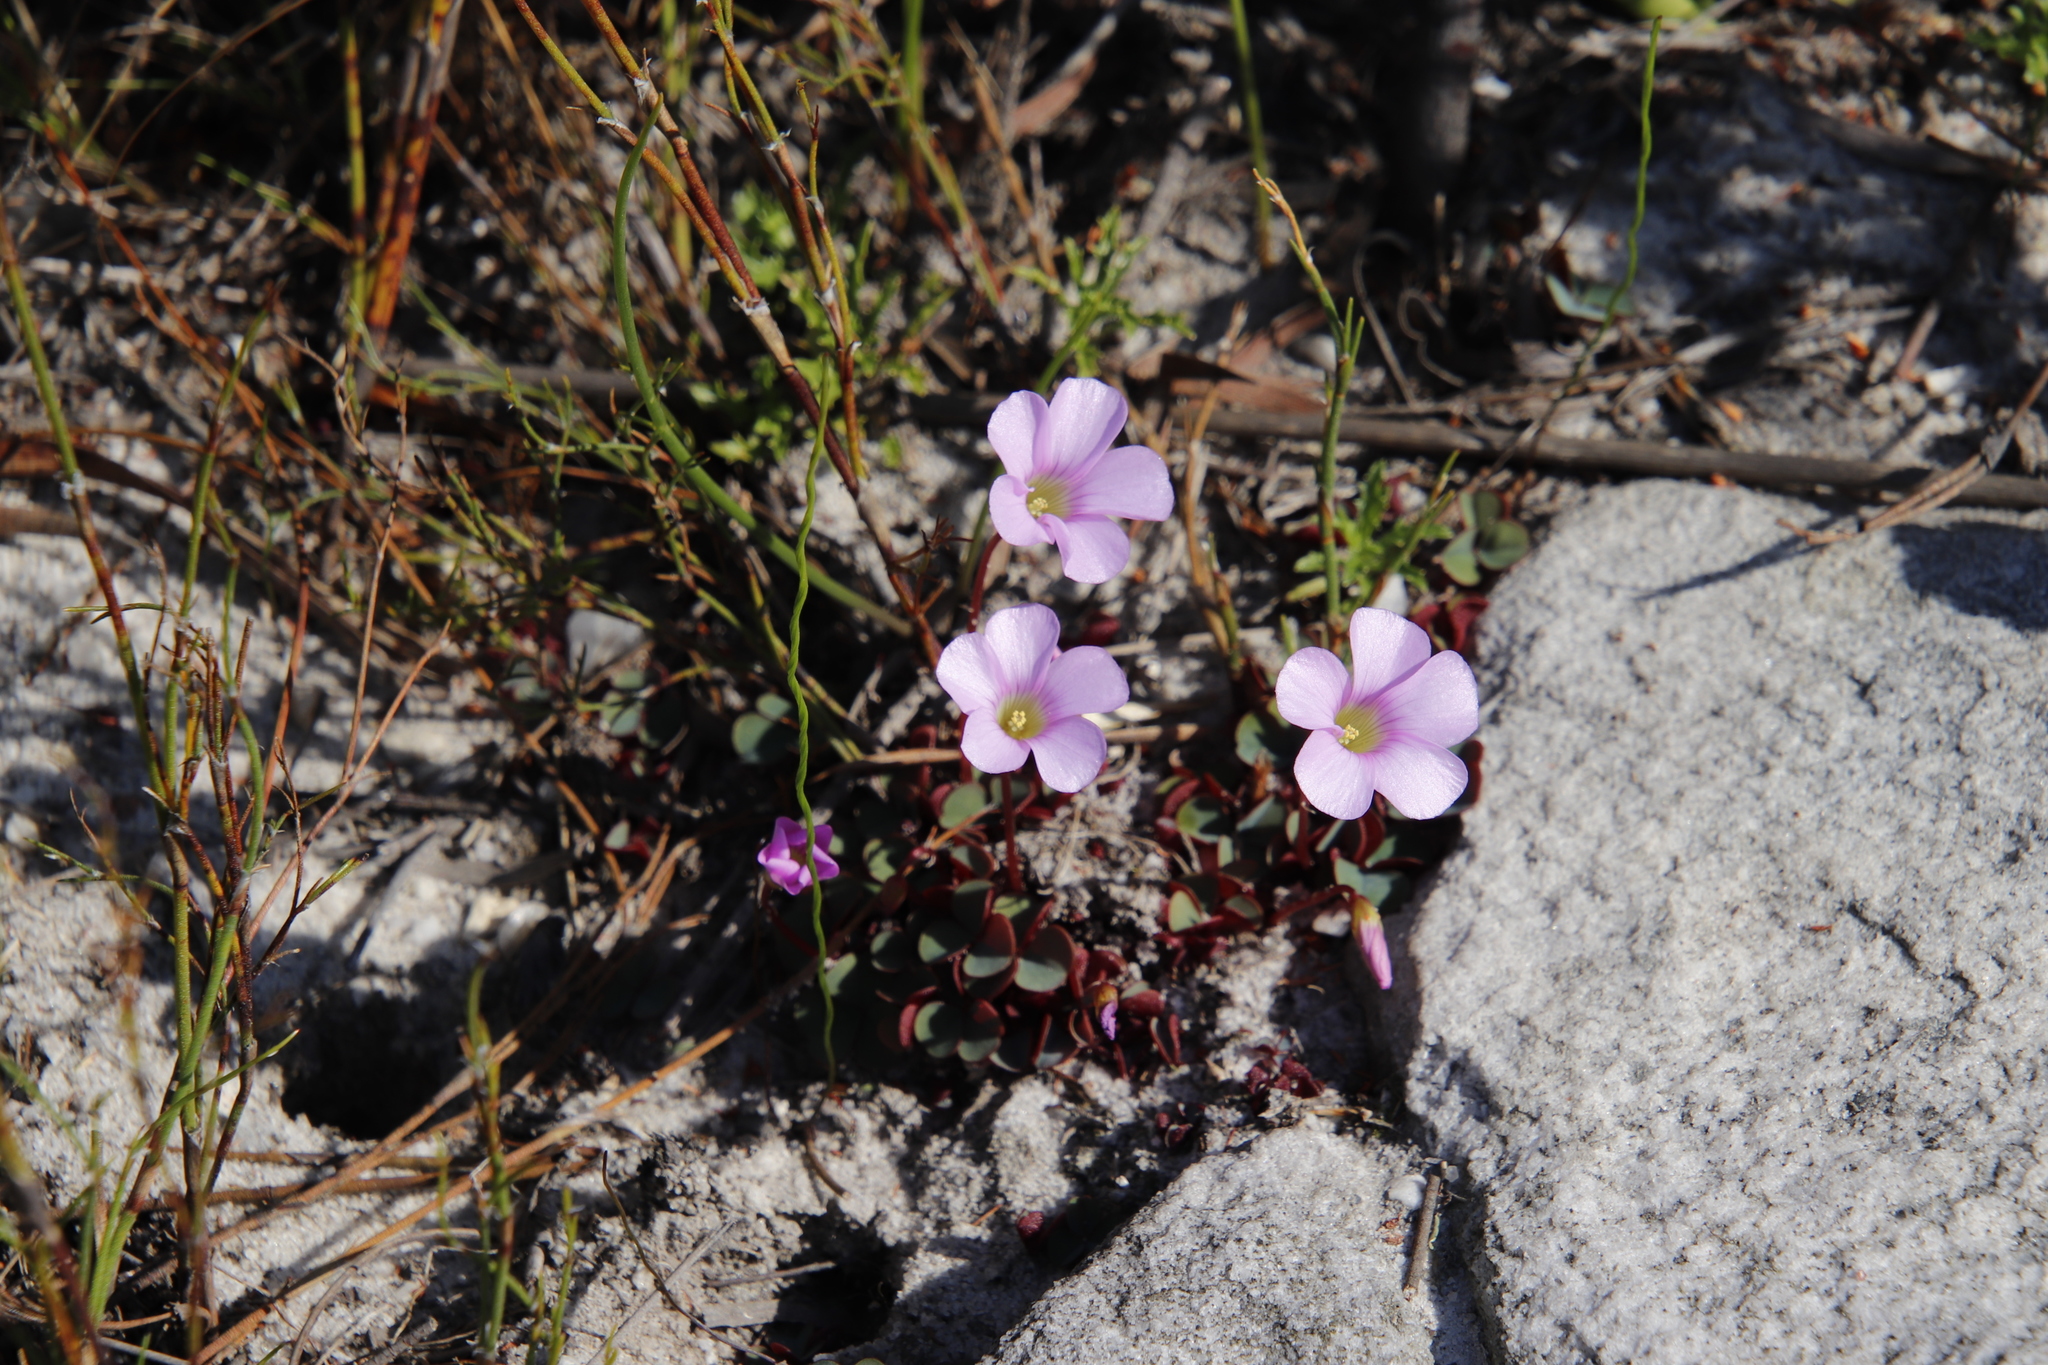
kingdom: Plantae
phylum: Tracheophyta
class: Magnoliopsida
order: Oxalidales
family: Oxalidaceae
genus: Oxalis
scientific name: Oxalis commutata
